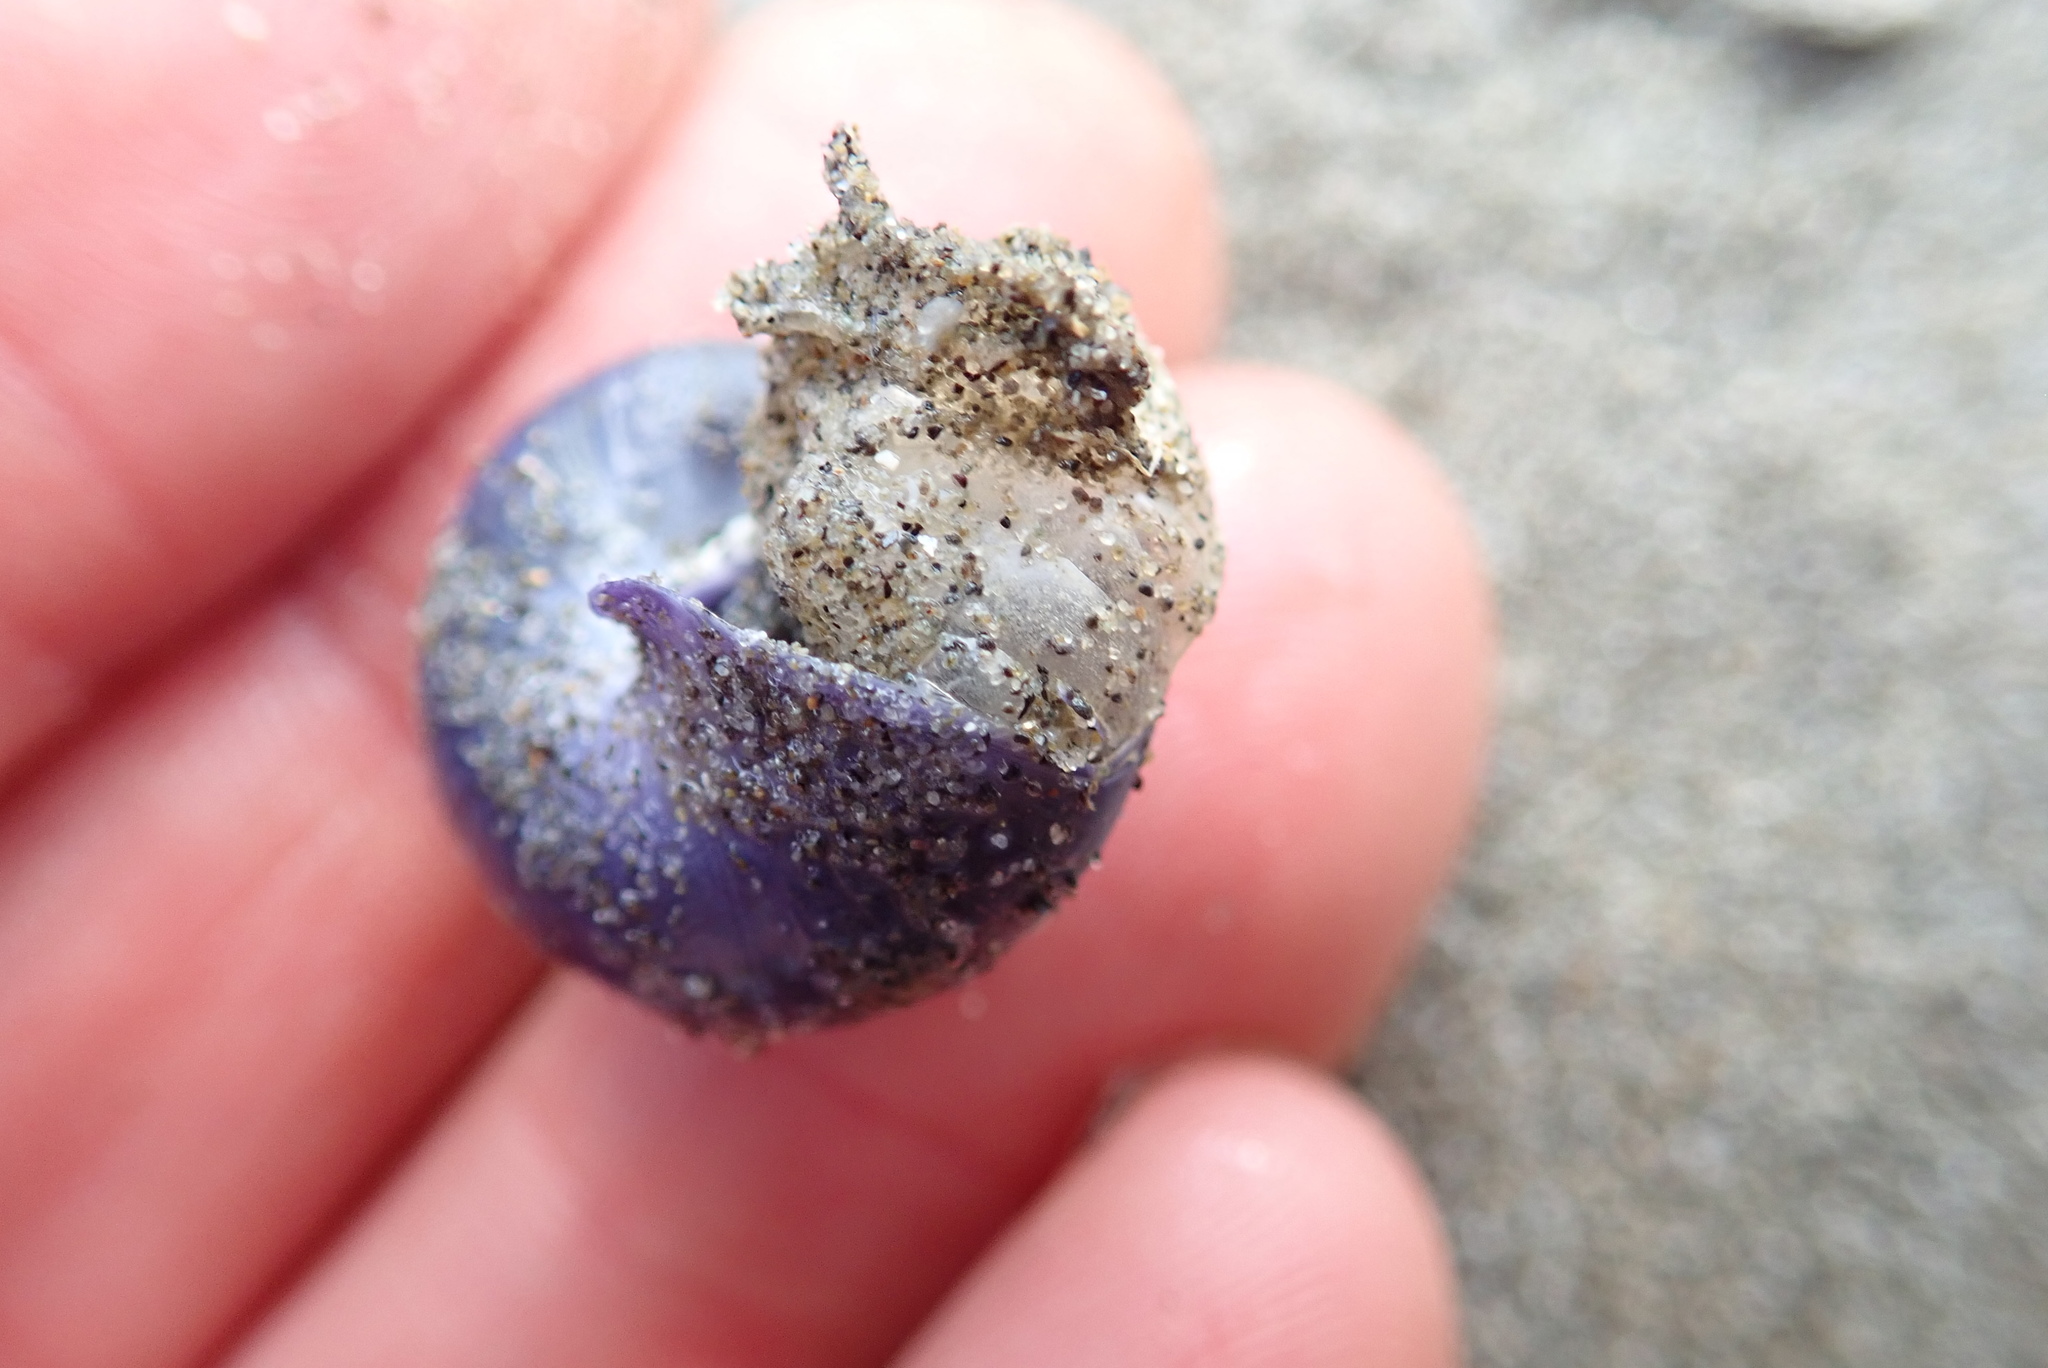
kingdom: Animalia
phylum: Mollusca
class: Gastropoda
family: Epitoniidae
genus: Janthina
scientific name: Janthina janthina
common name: Common janthina
